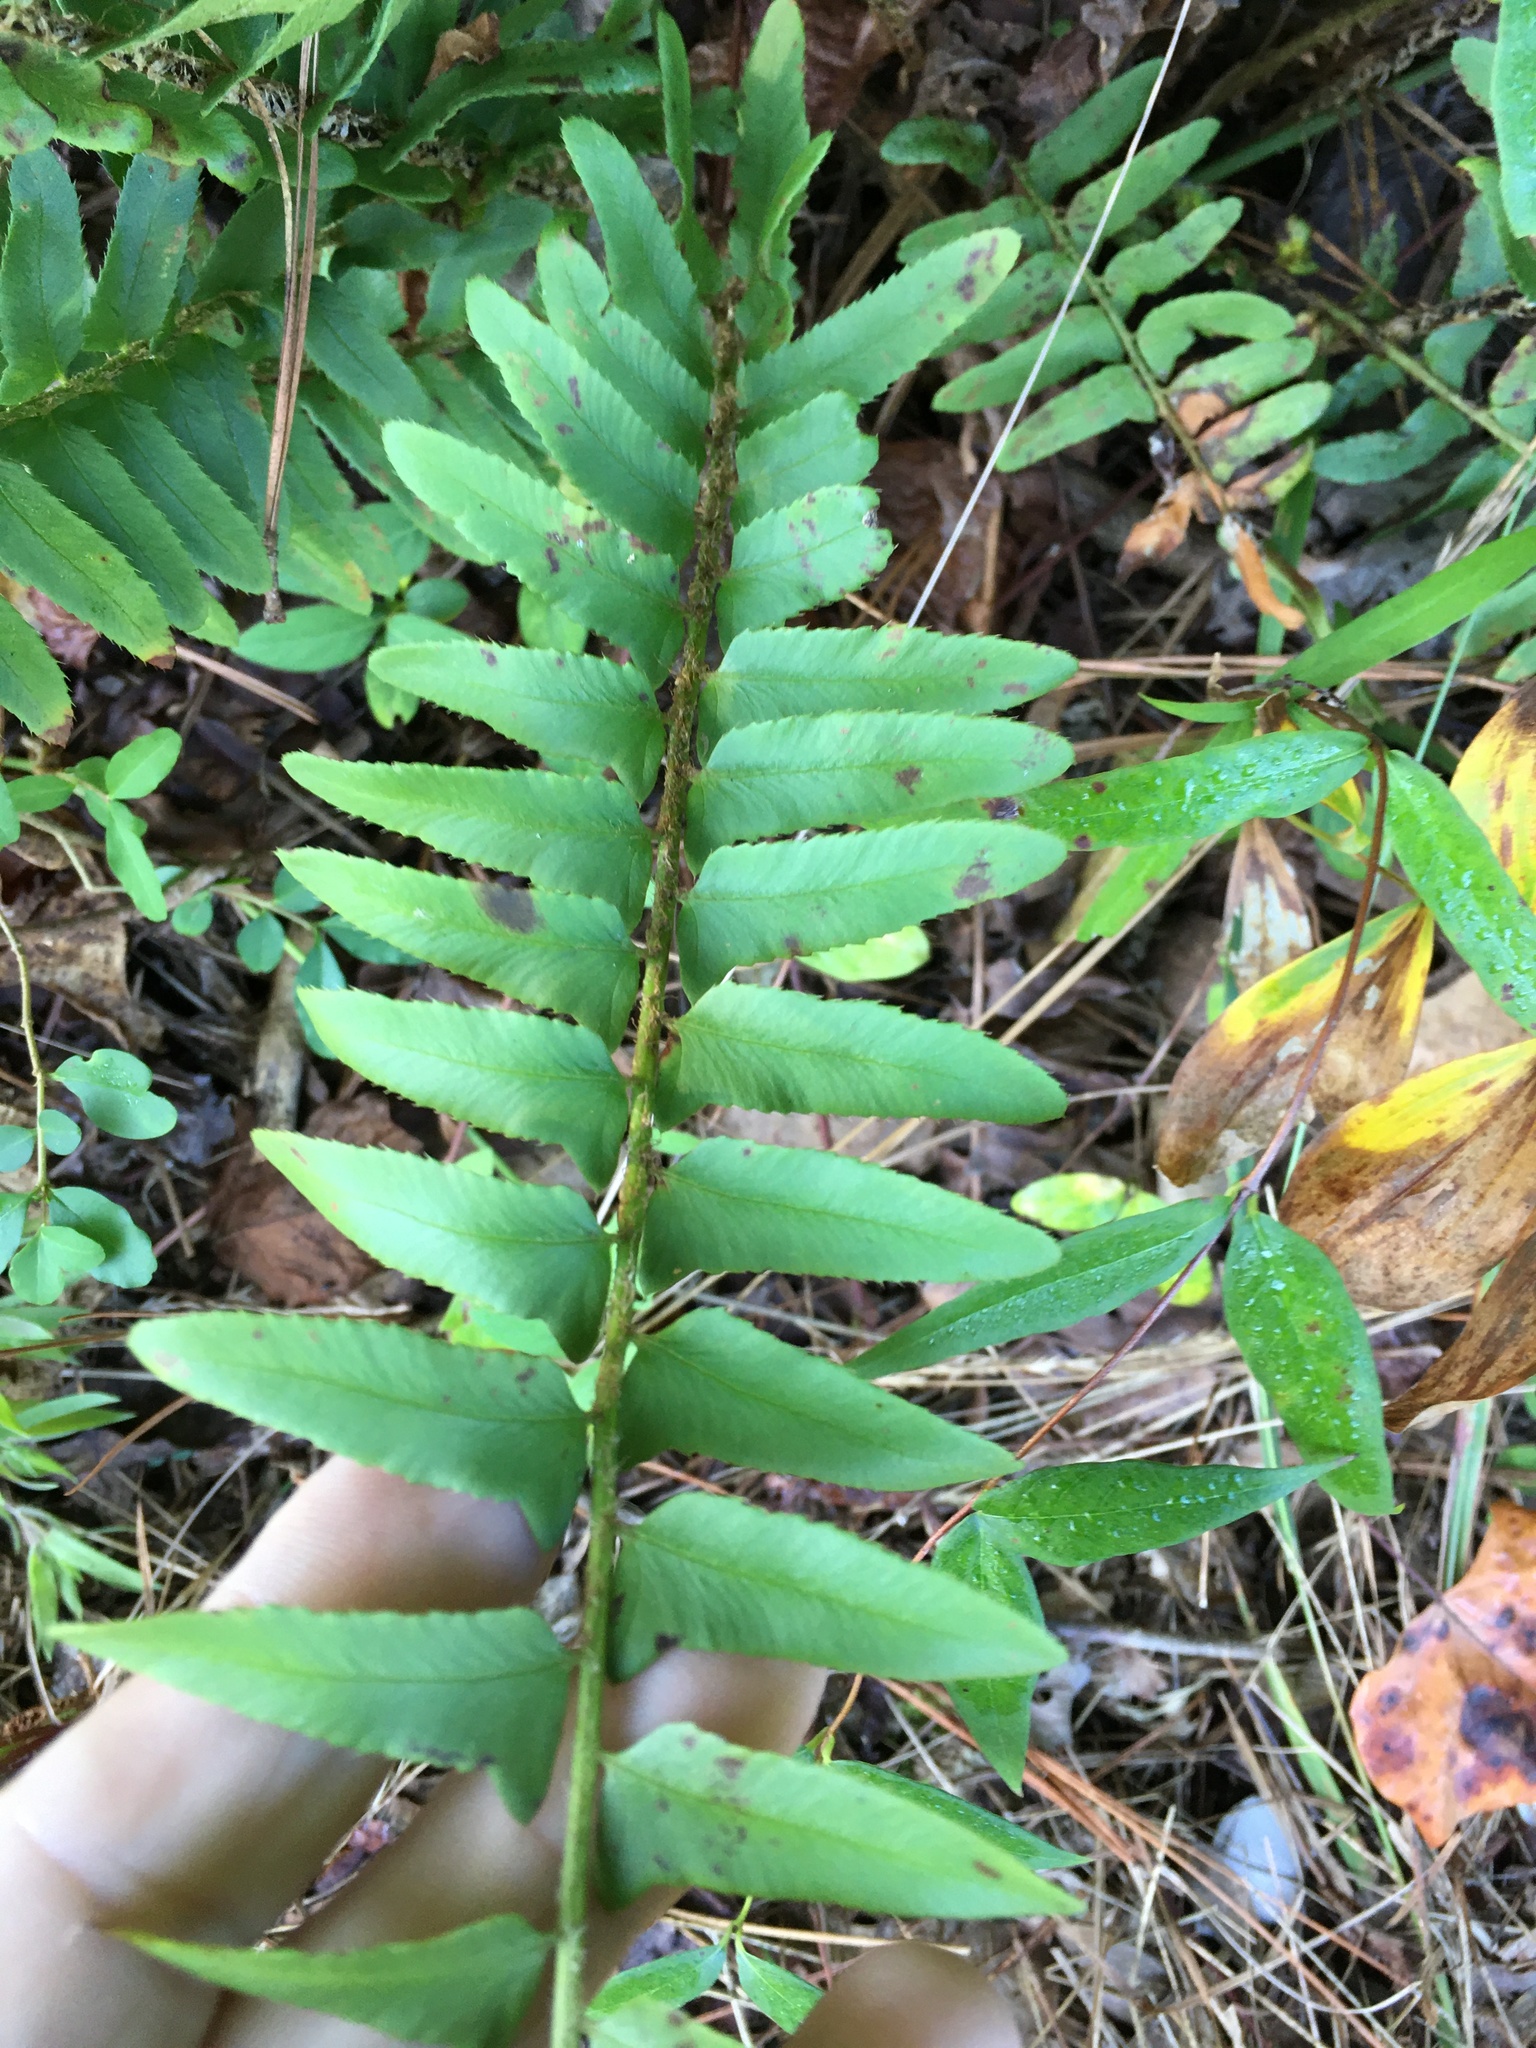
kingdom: Plantae
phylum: Tracheophyta
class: Polypodiopsida
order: Polypodiales
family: Dryopteridaceae
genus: Polystichum
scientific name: Polystichum acrostichoides
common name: Christmas fern
